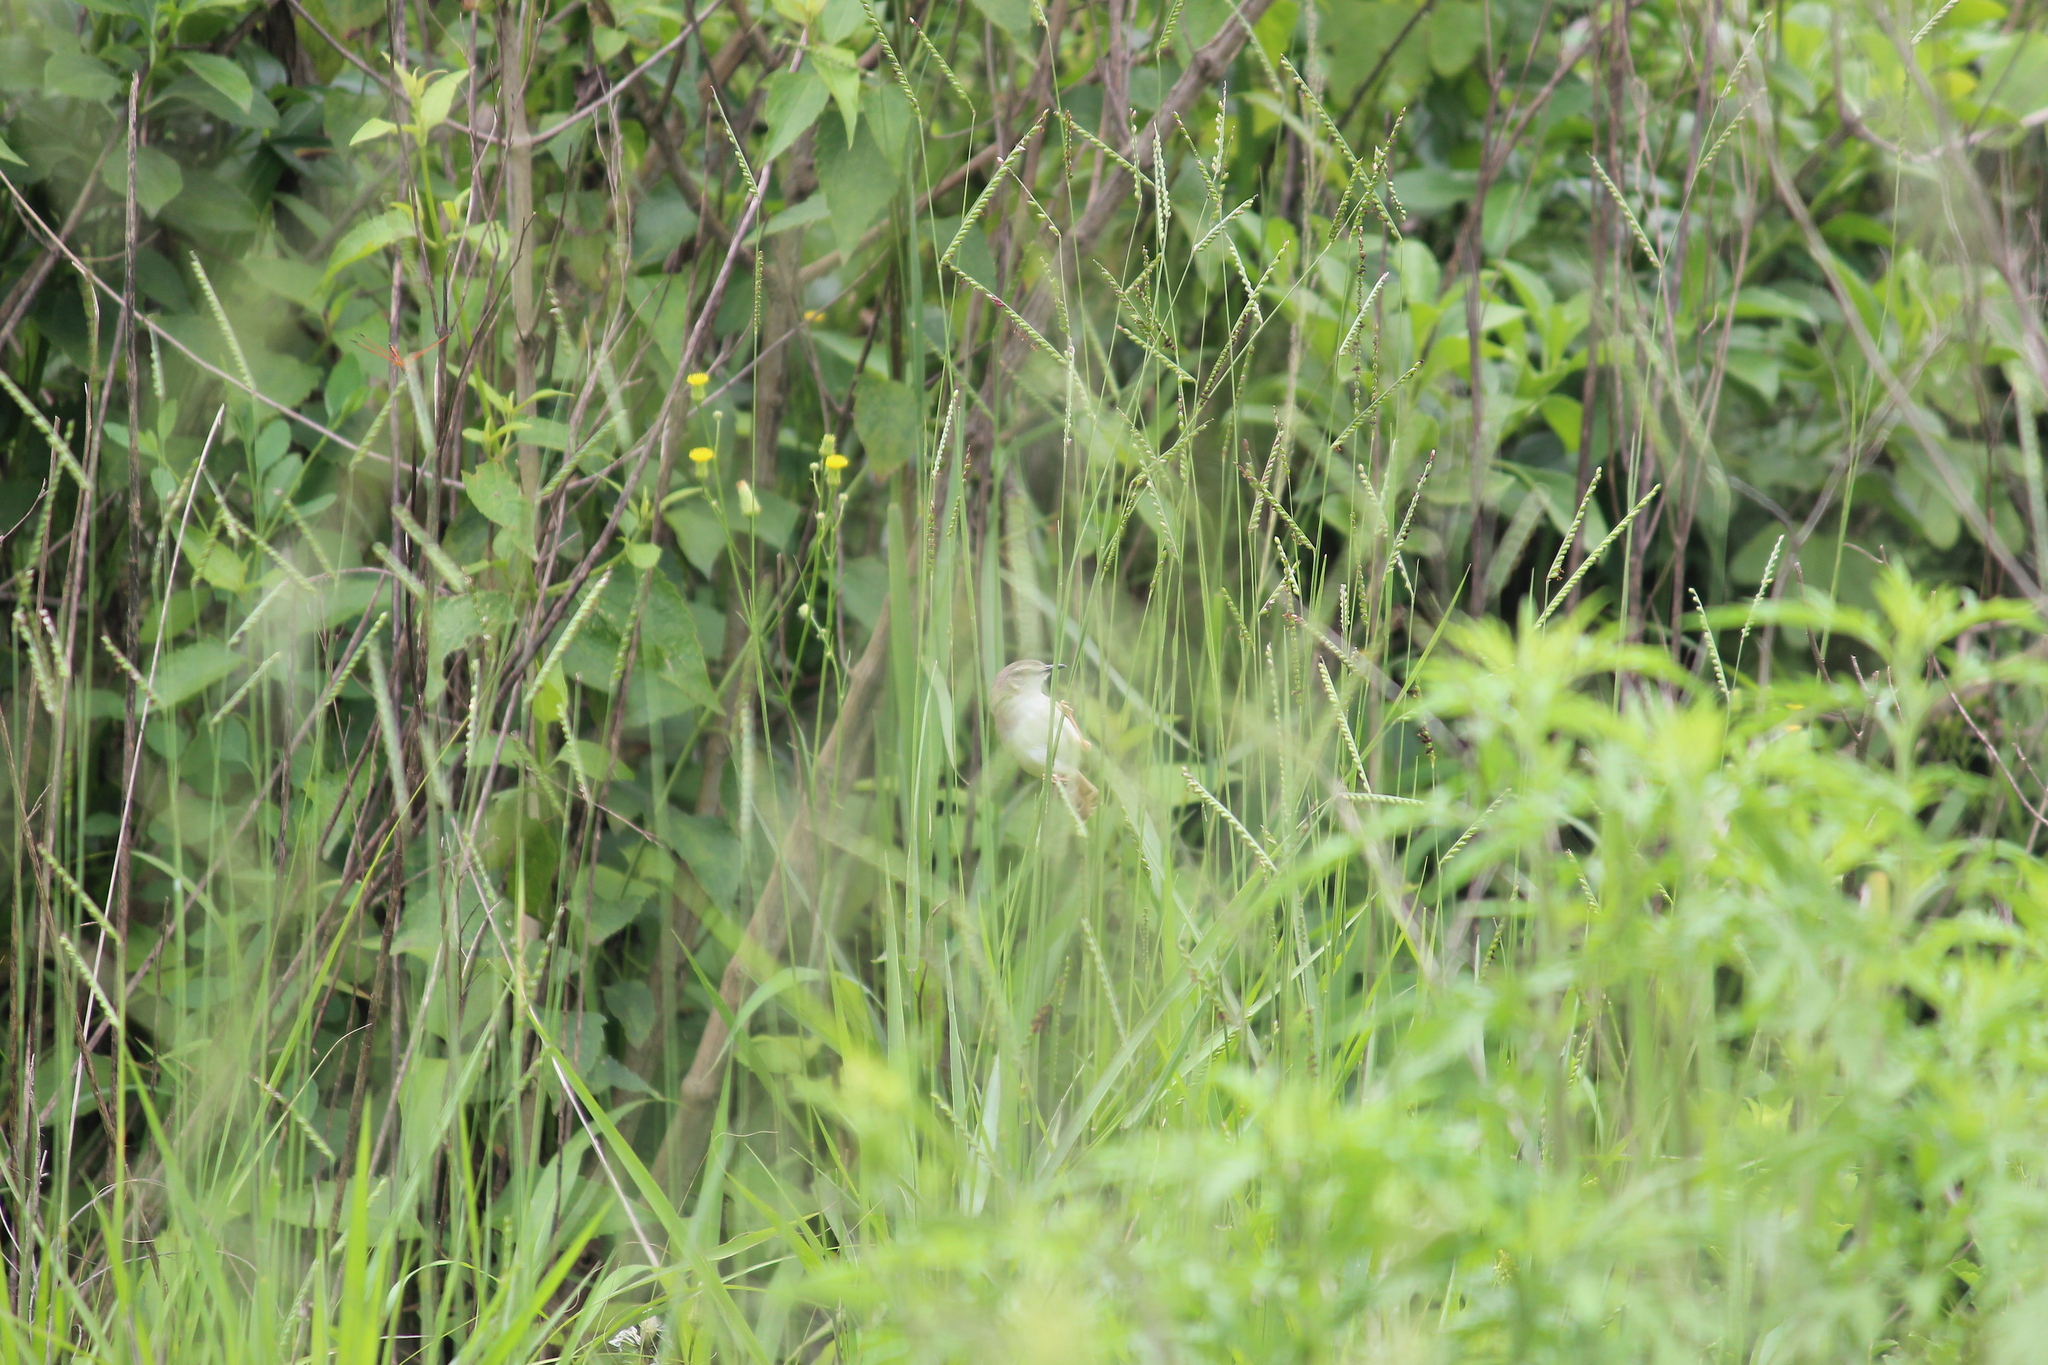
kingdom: Animalia
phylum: Chordata
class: Aves
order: Passeriformes
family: Cisticolidae
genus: Prinia
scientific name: Prinia subflava
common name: Tawny-flanked prinia
